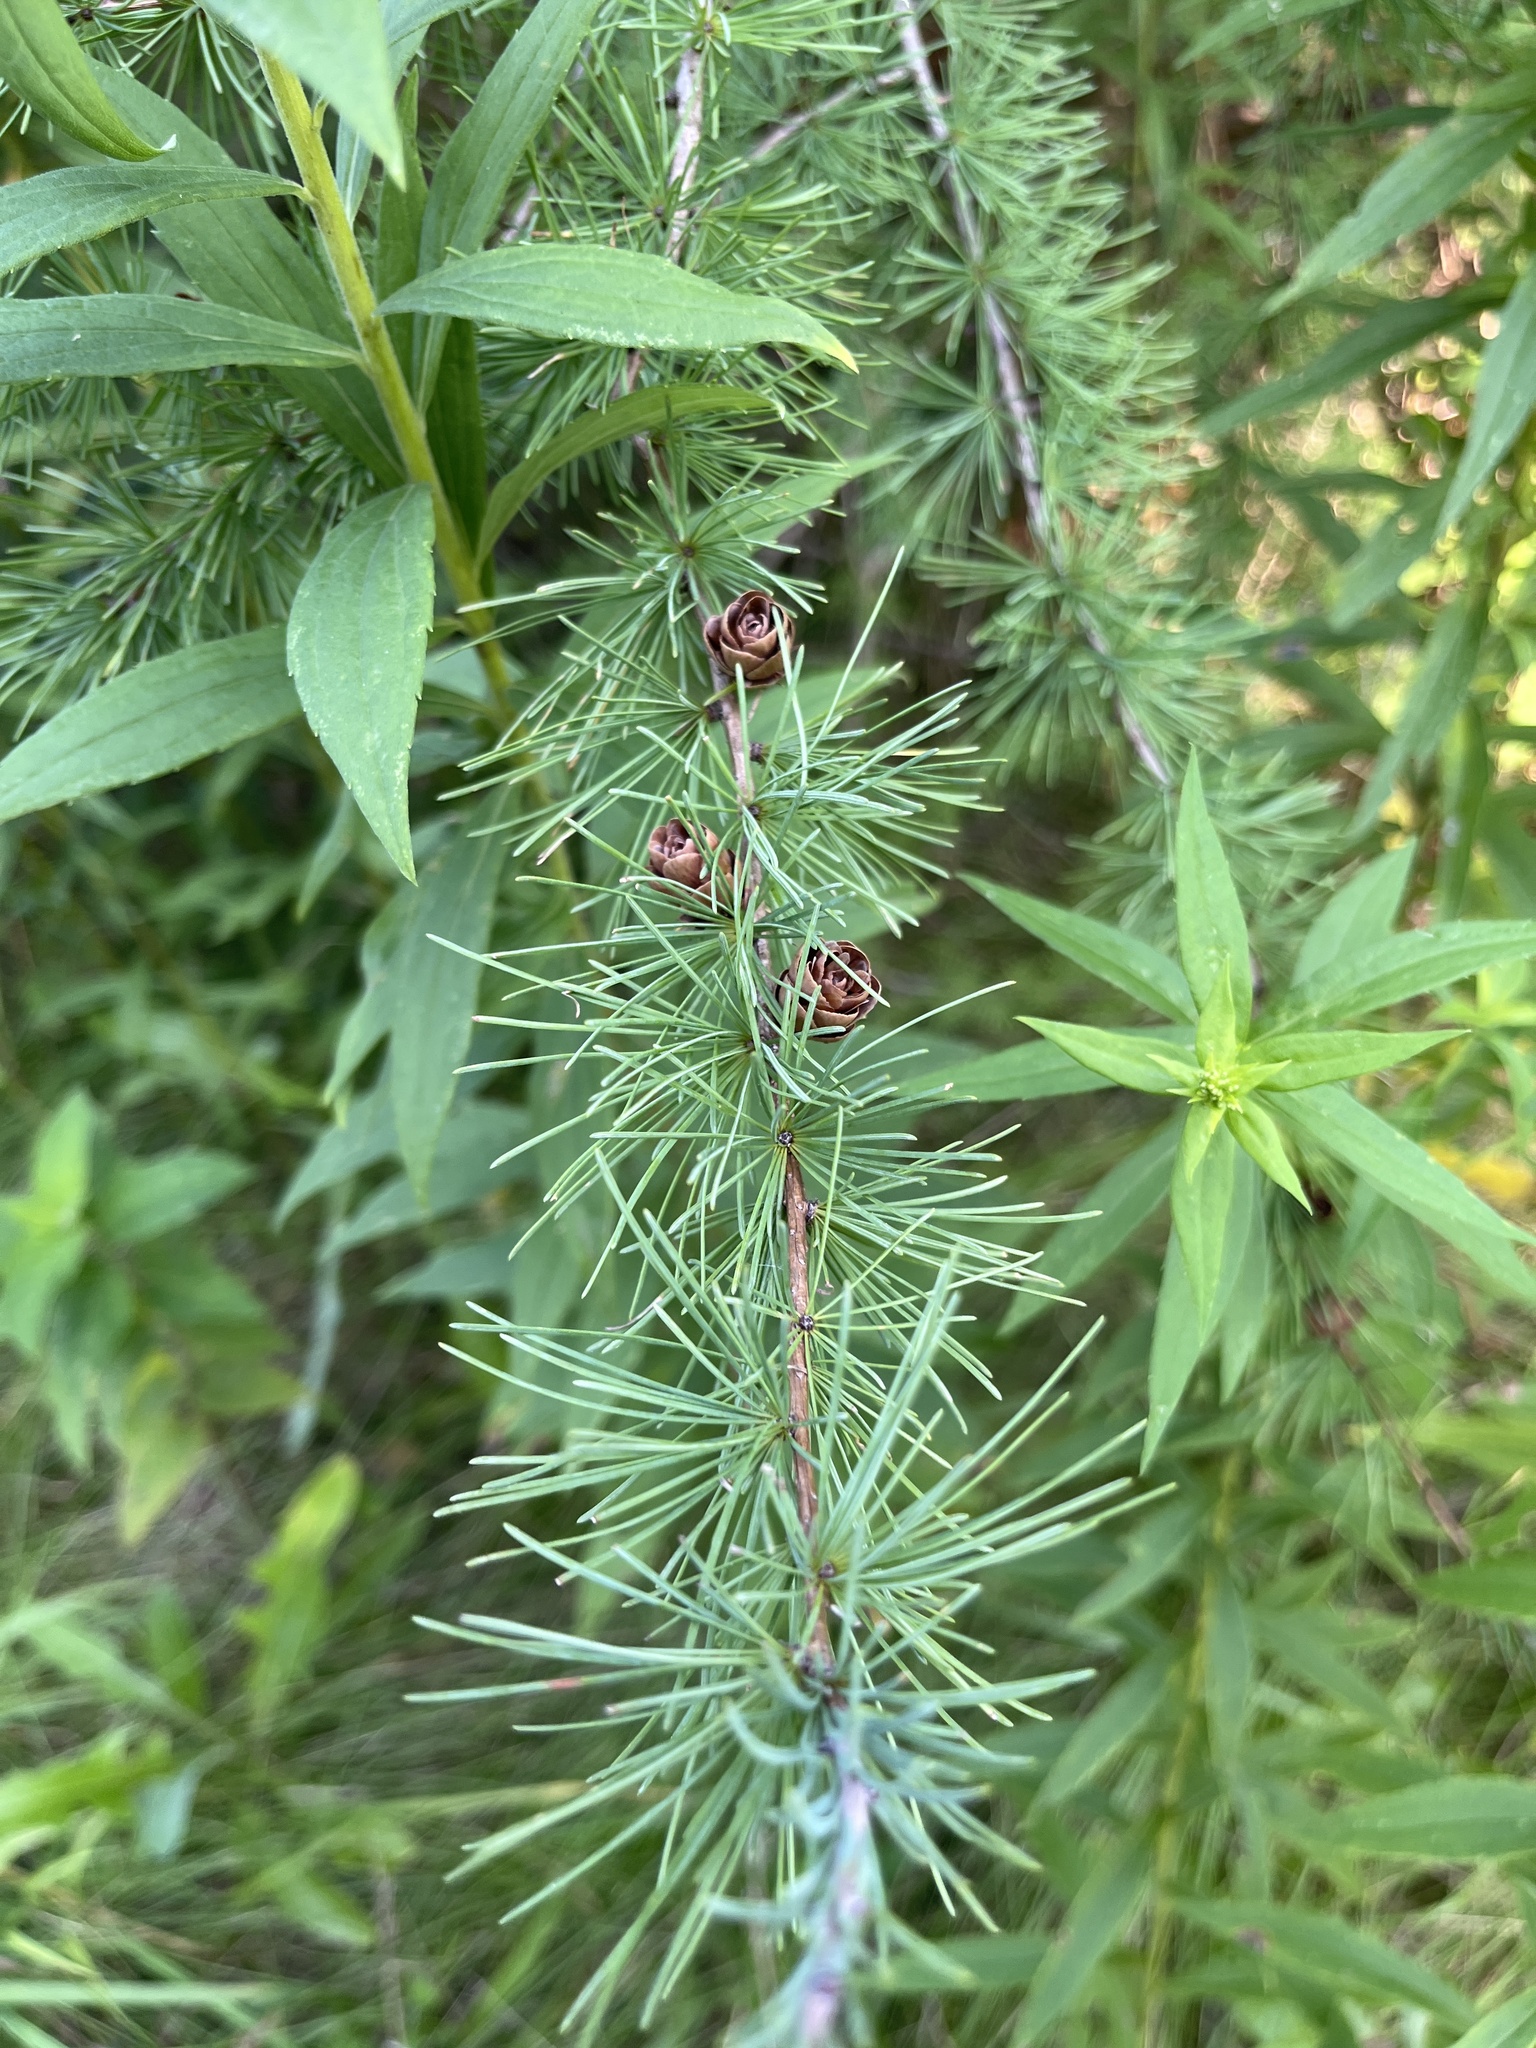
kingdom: Plantae
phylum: Tracheophyta
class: Pinopsida
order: Pinales
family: Pinaceae
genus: Larix
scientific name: Larix laricina
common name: American larch
